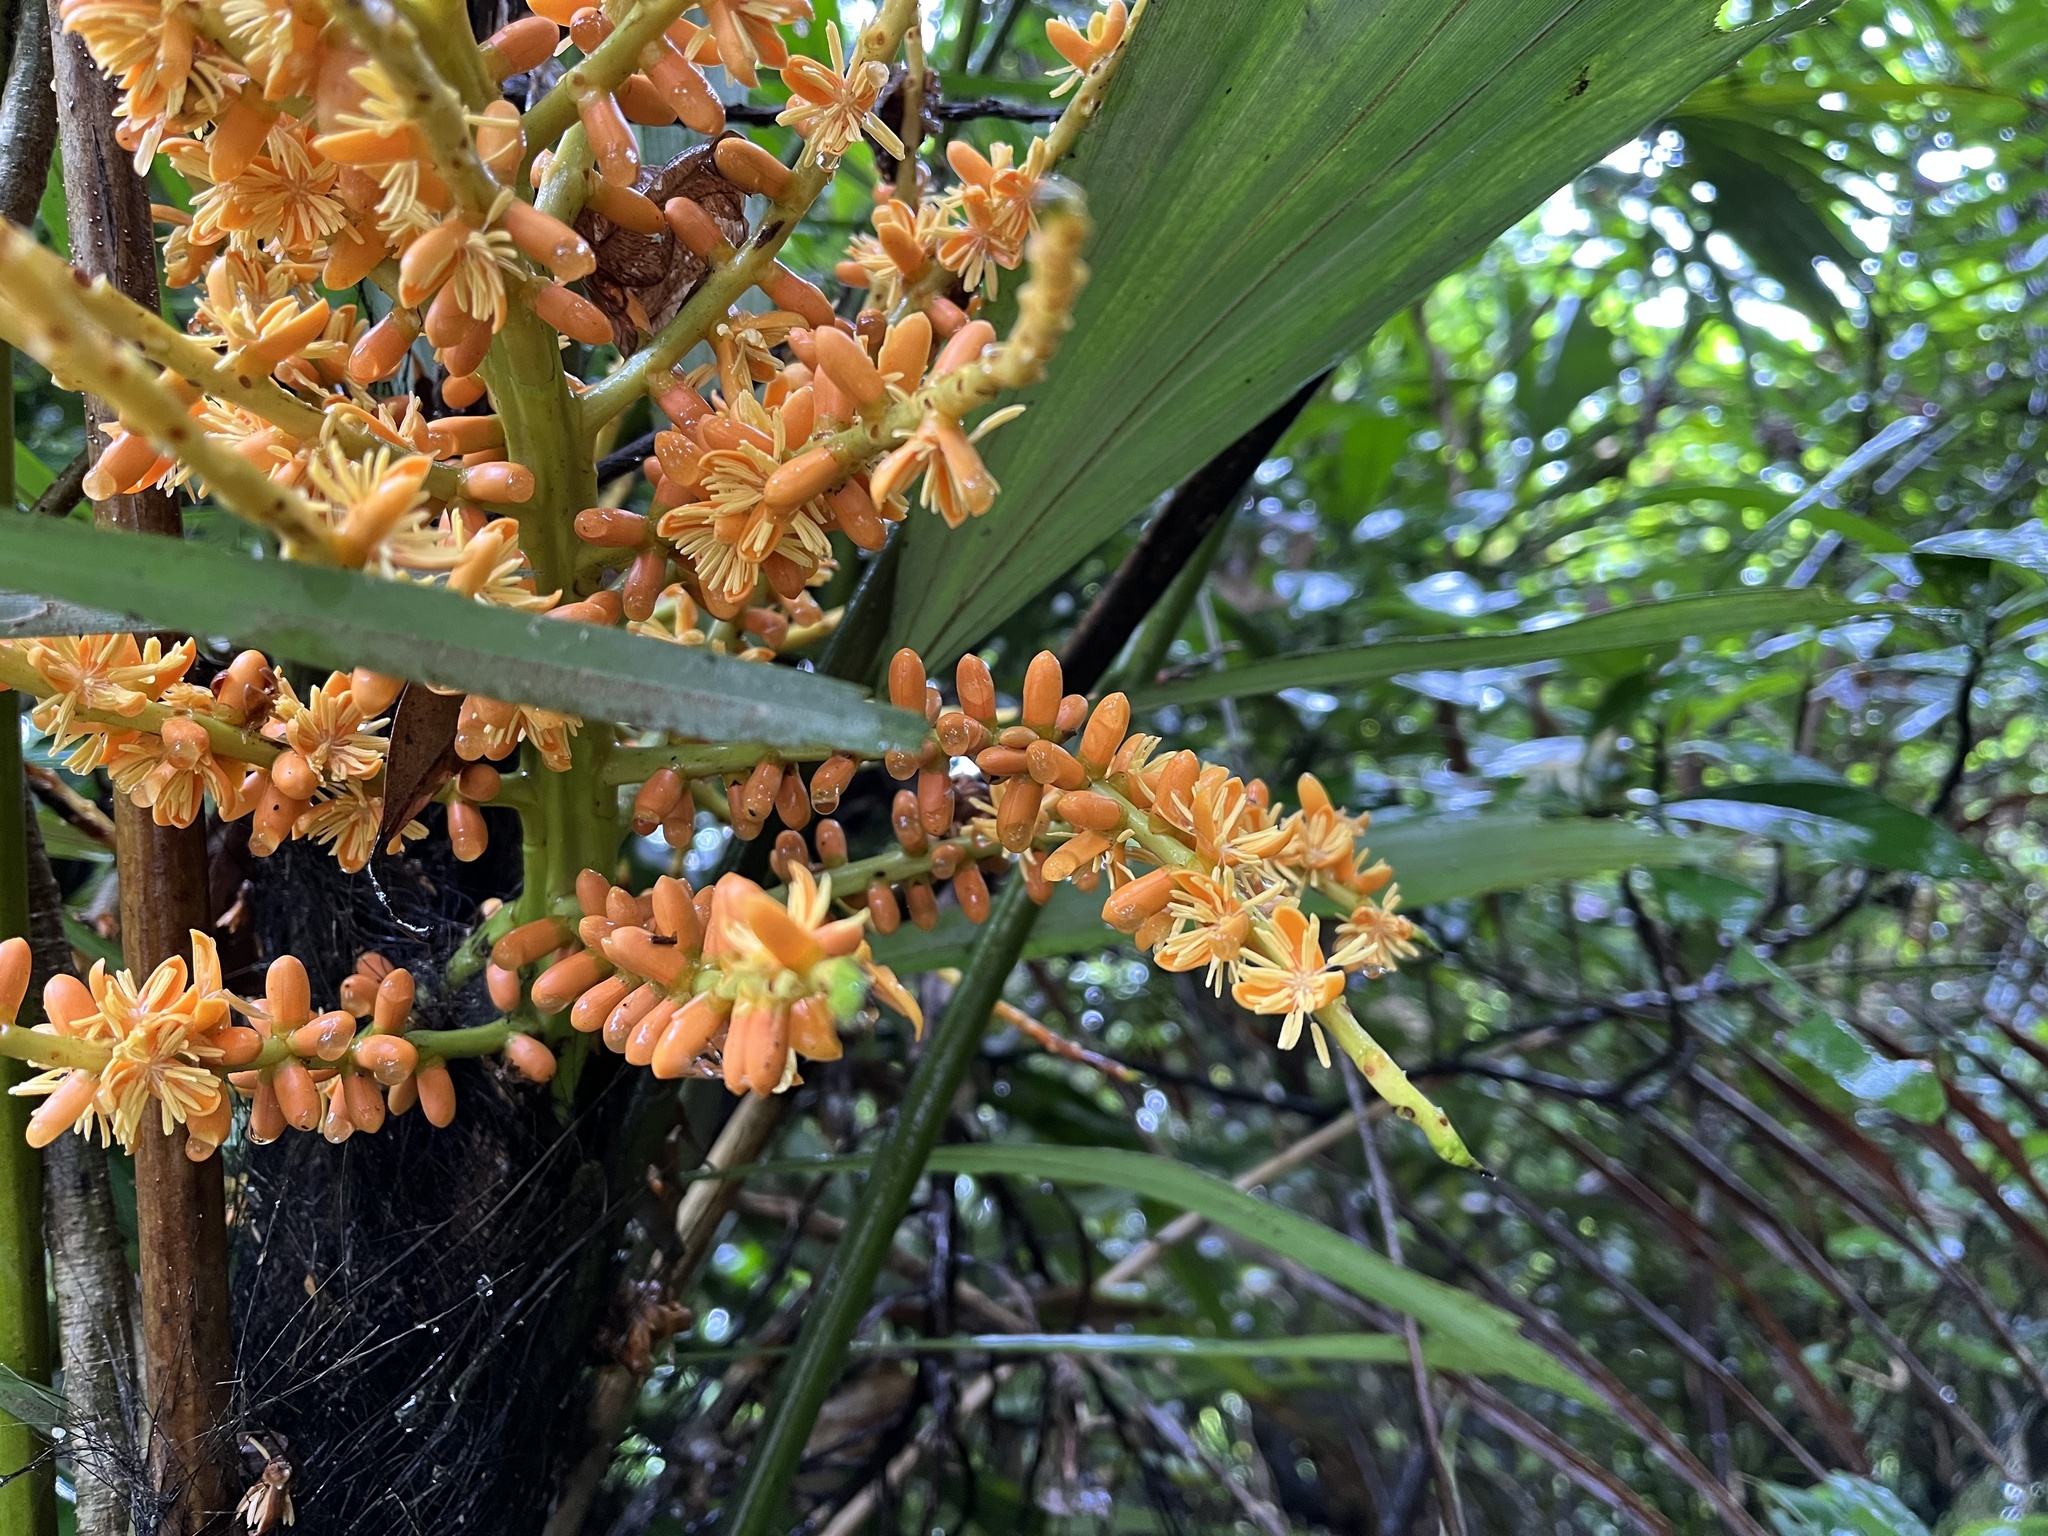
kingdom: Plantae
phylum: Tracheophyta
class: Liliopsida
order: Arecales
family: Arecaceae
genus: Arenga
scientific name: Arenga engleri
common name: Formosan sugar palm
